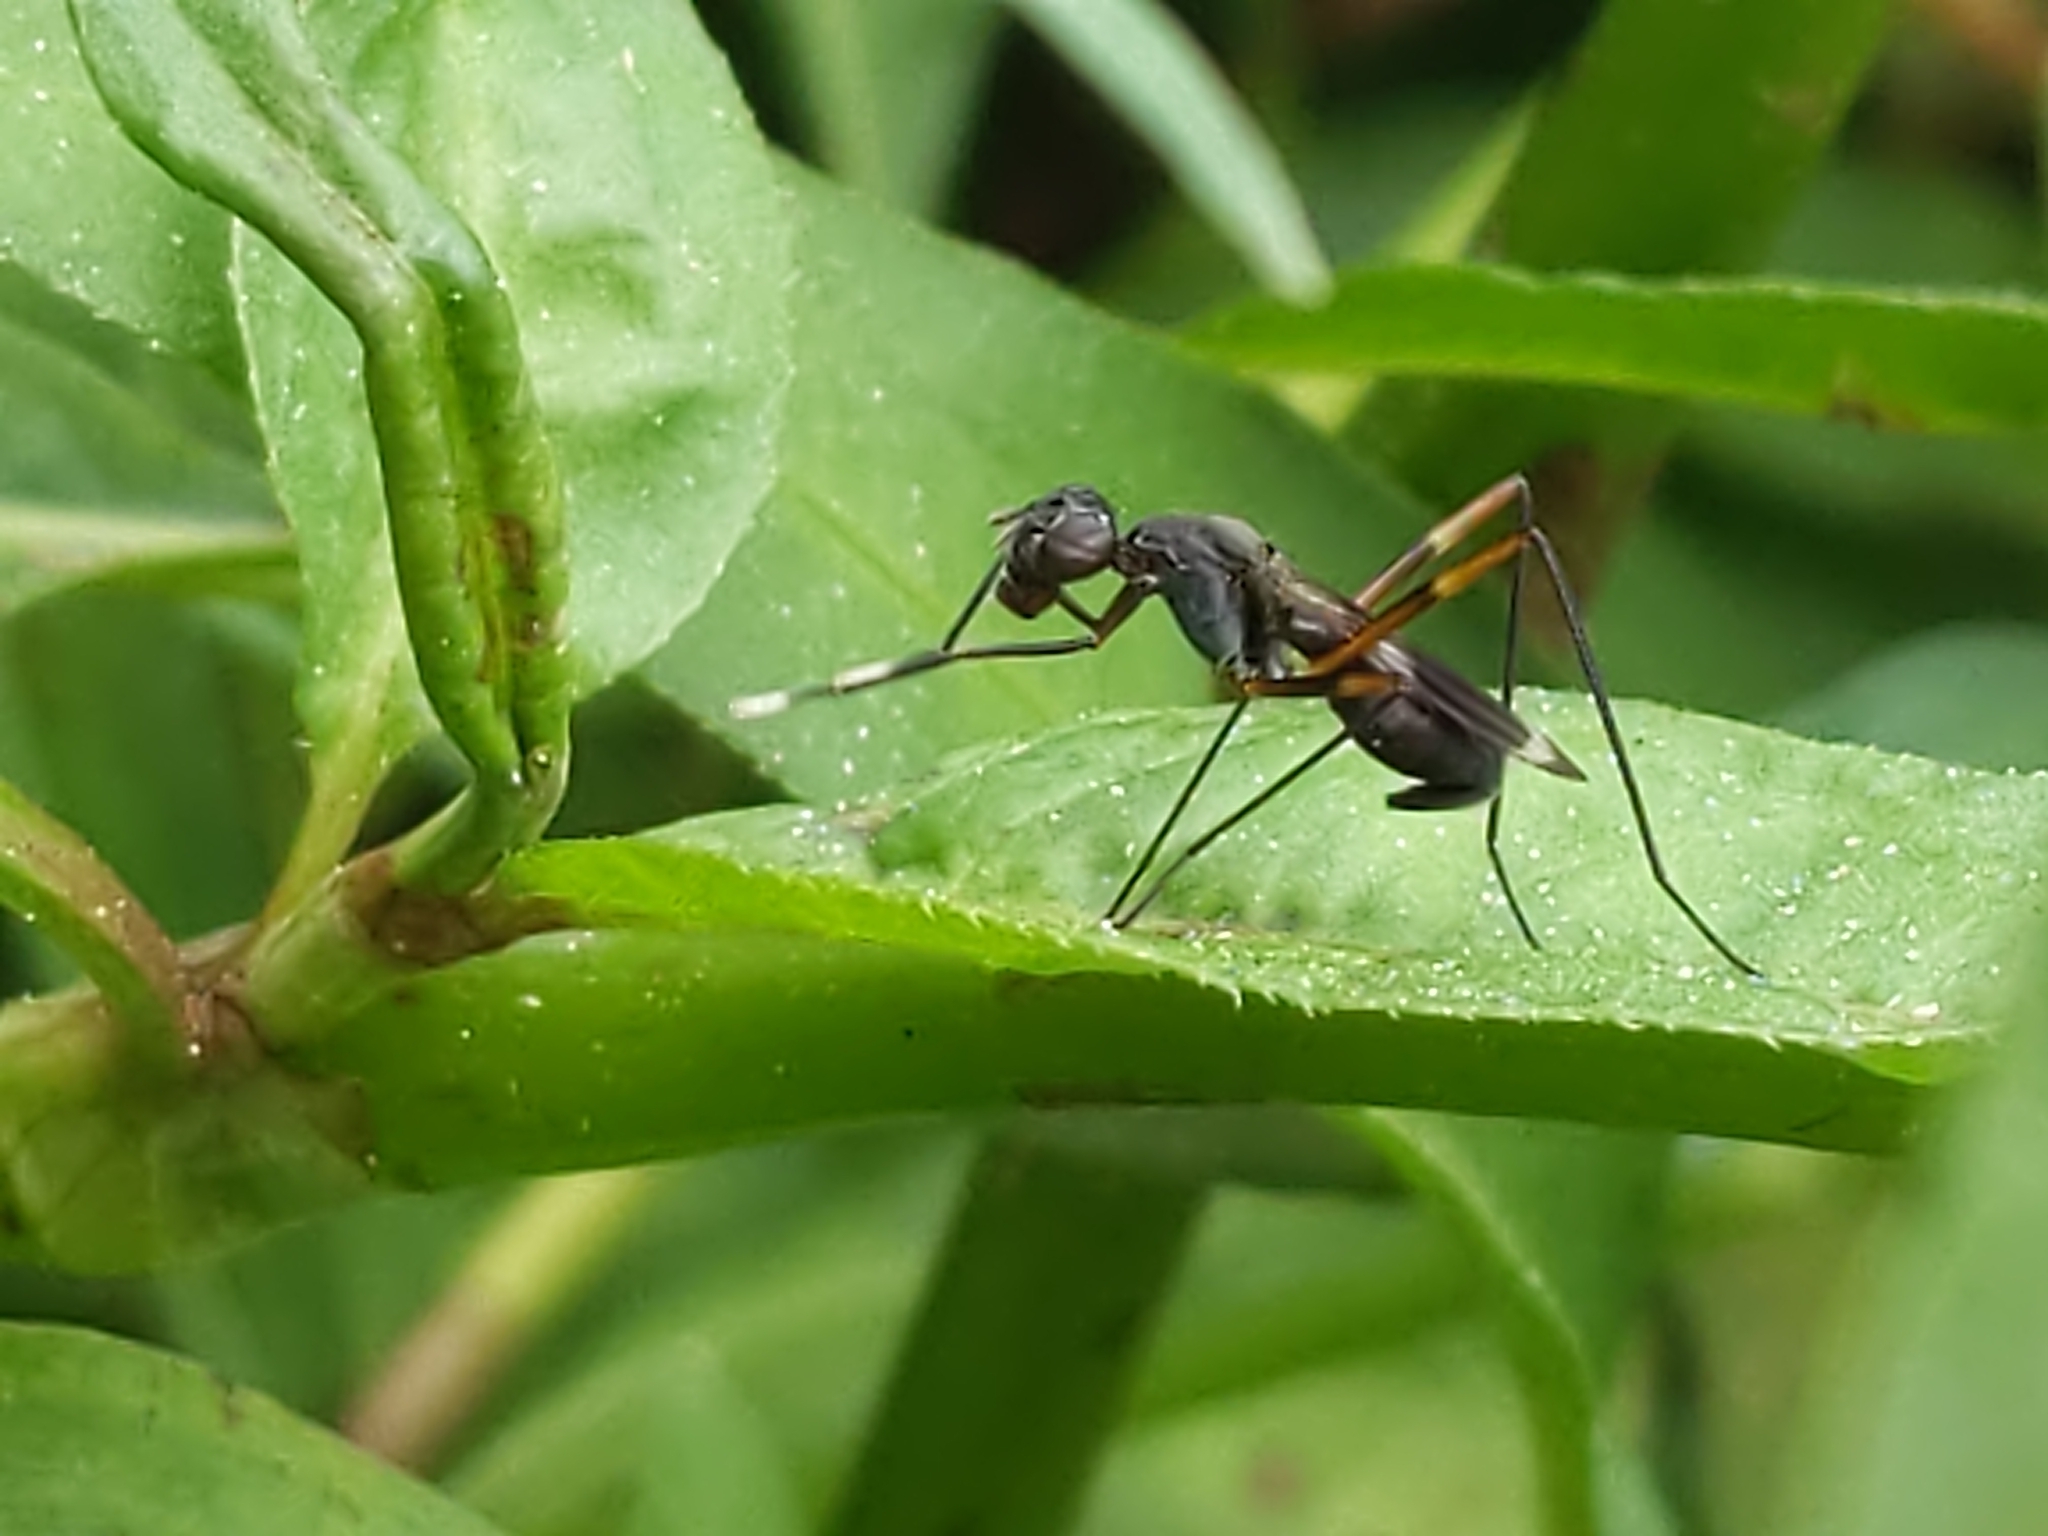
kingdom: Animalia
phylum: Arthropoda
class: Insecta
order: Diptera
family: Micropezidae
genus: Taeniaptera
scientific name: Taeniaptera trivittata
